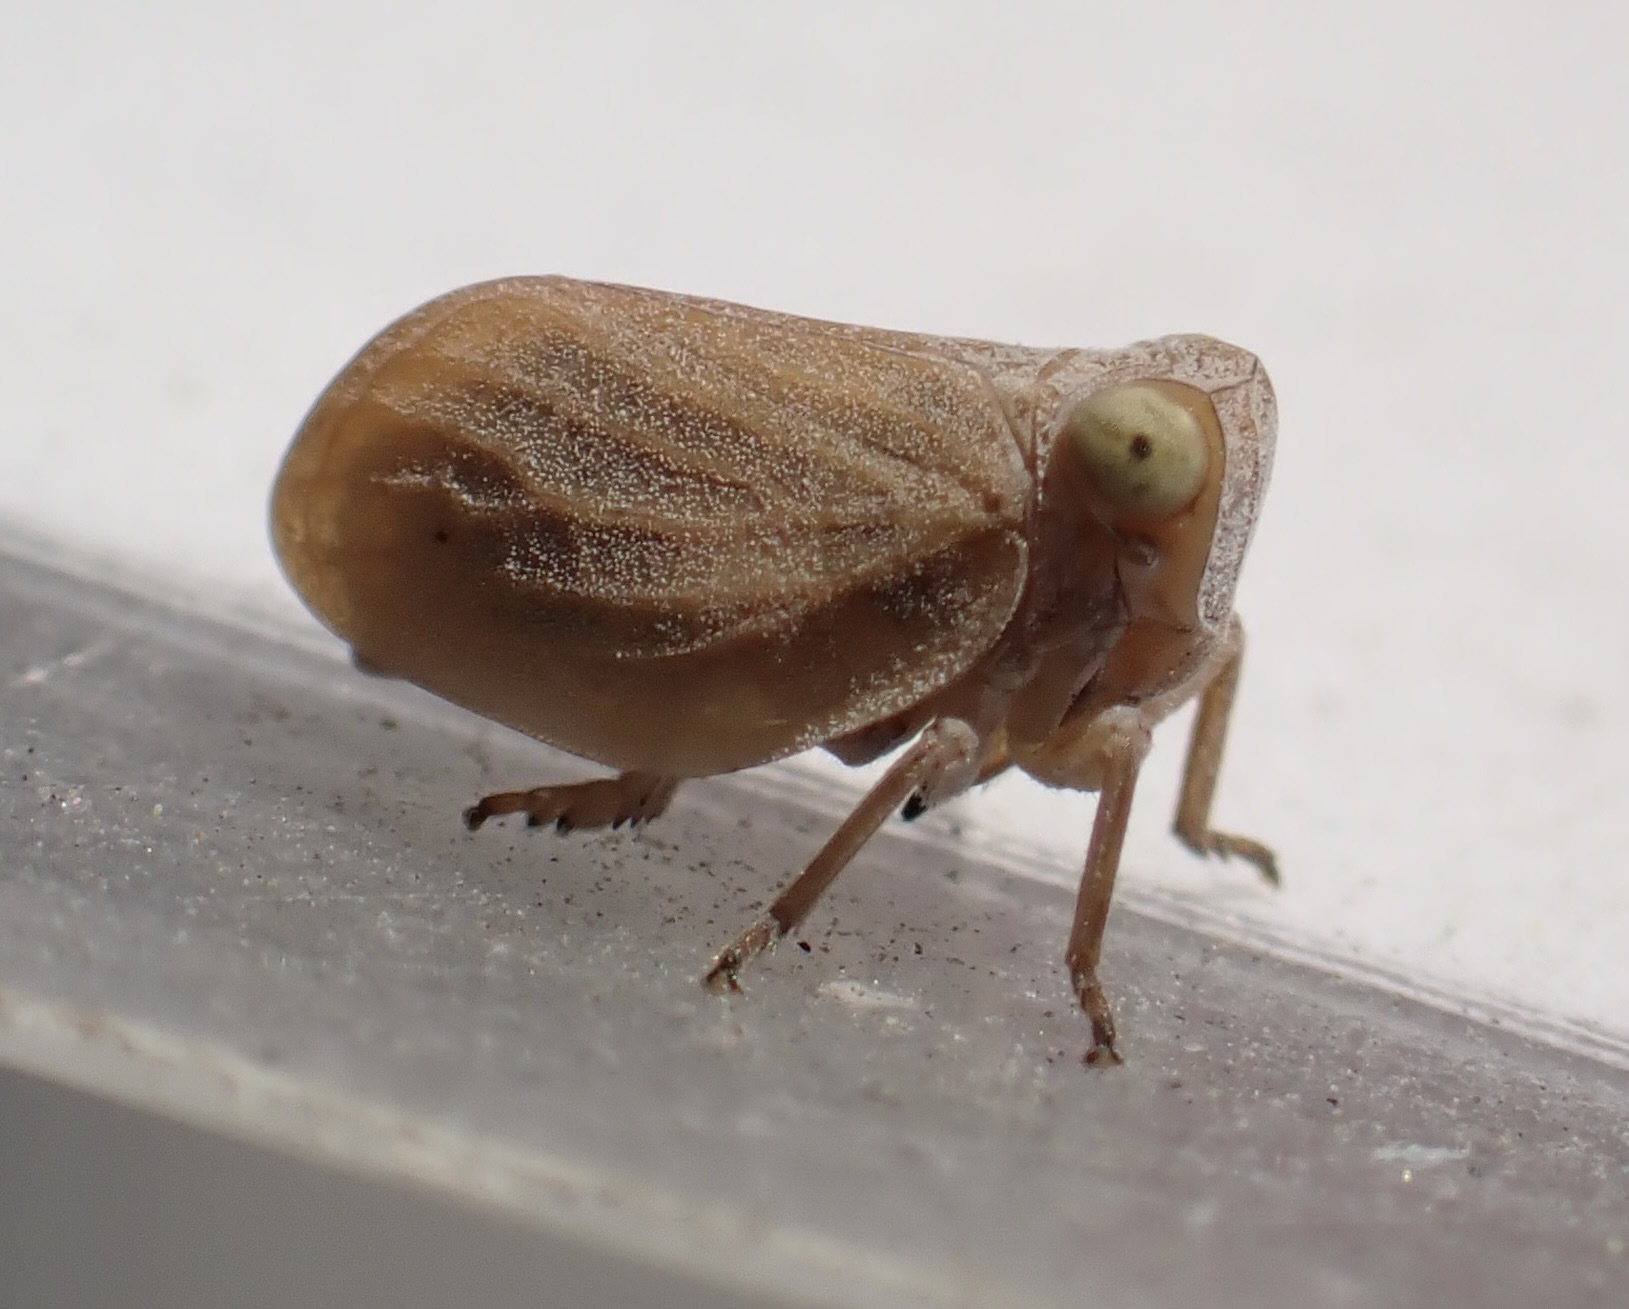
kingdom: Animalia
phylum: Arthropoda
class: Insecta
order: Hemiptera
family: Issidae
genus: Agalmatium
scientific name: Agalmatium bilobum
